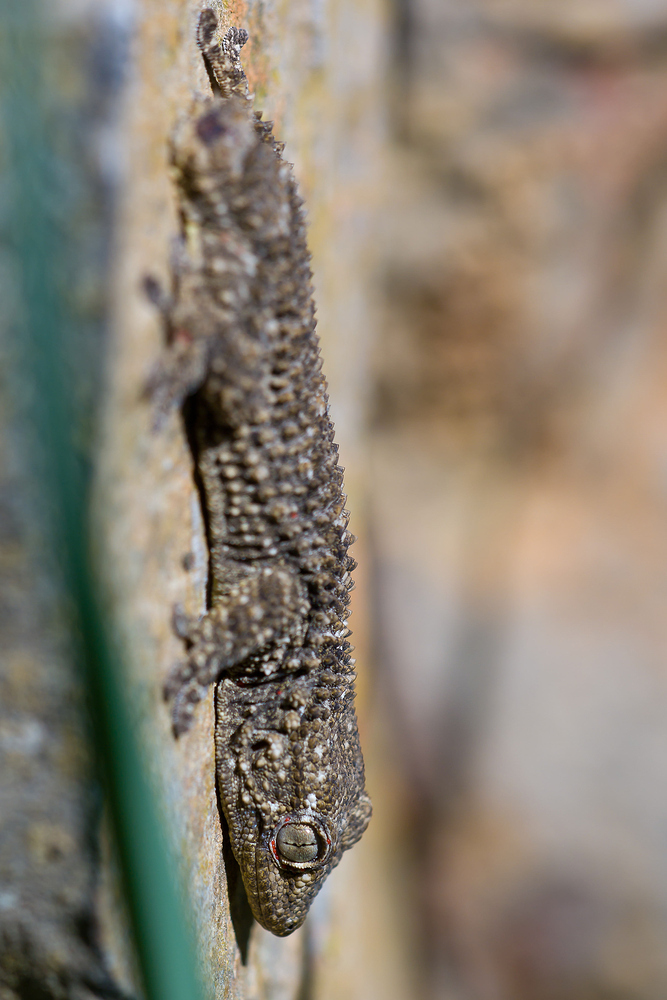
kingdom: Animalia
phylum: Chordata
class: Squamata
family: Phyllodactylidae
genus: Tarentola
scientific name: Tarentola mauritanica
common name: Moorish gecko
